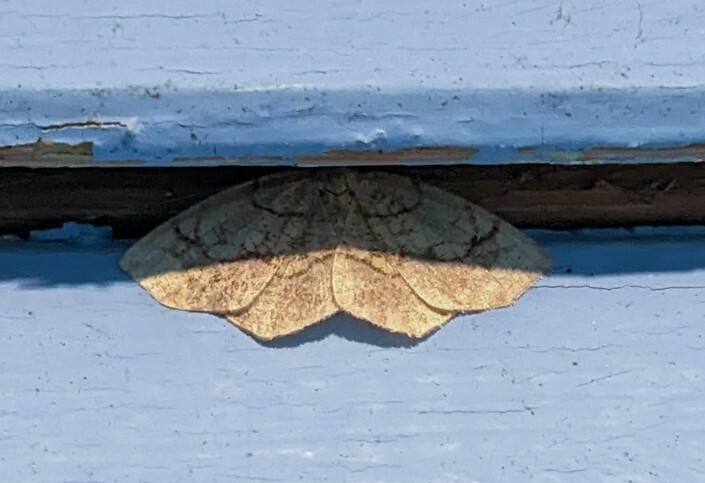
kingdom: Animalia
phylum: Arthropoda
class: Insecta
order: Lepidoptera
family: Geometridae
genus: Nematocampa
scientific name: Nematocampa resistaria
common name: Horned spanworm moth
